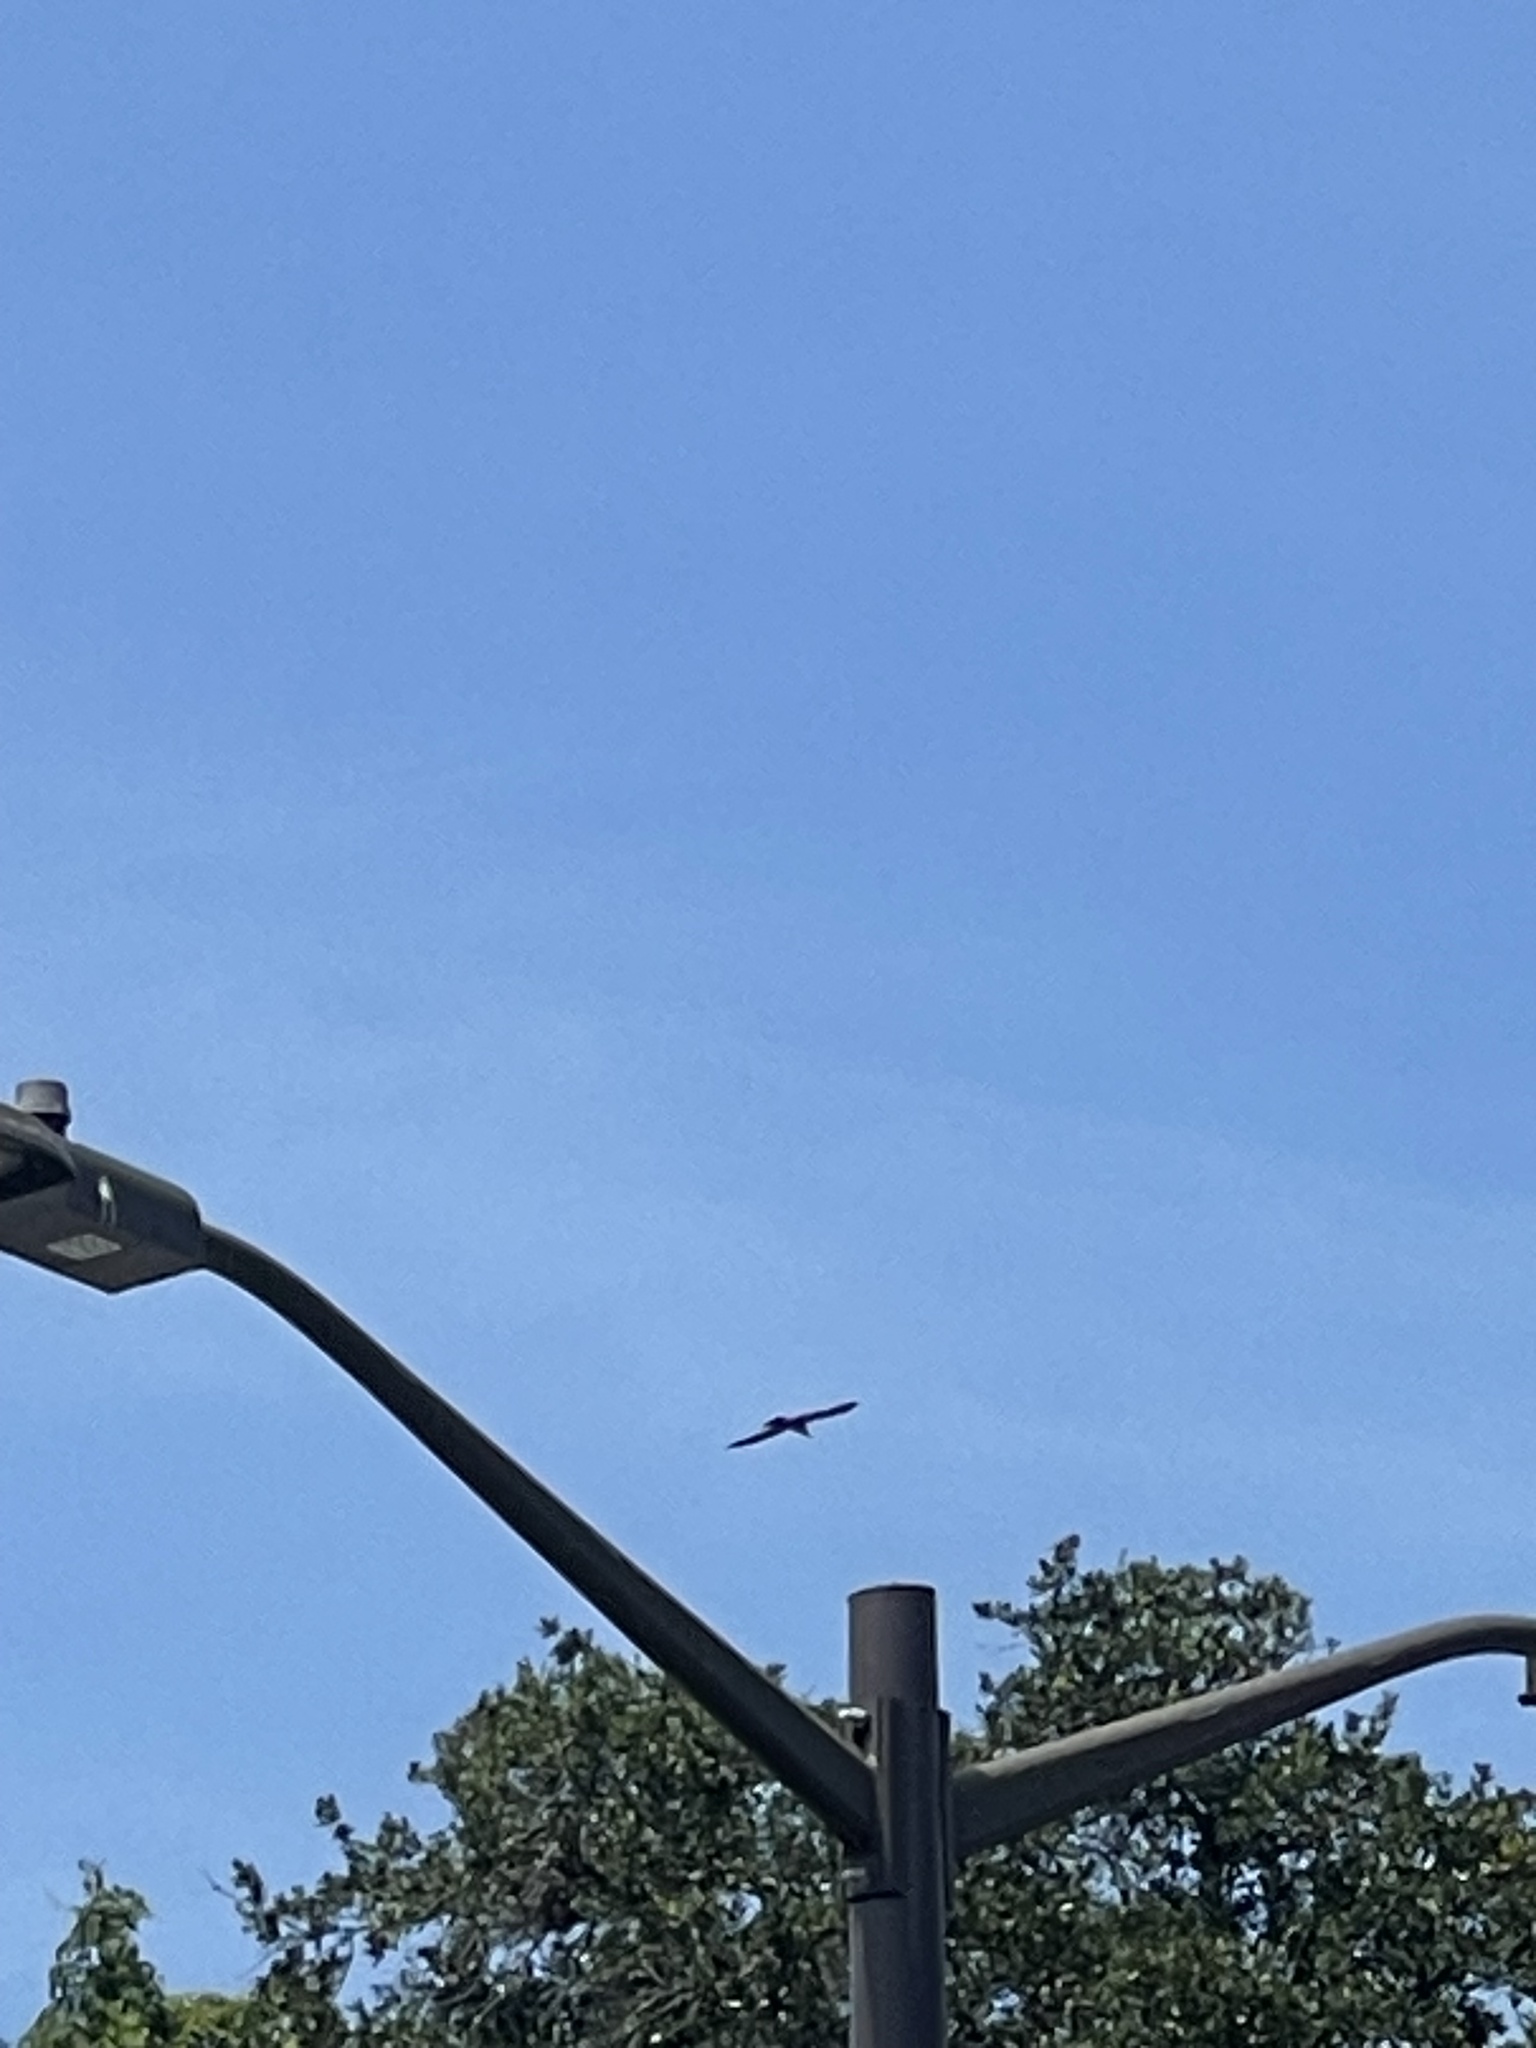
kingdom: Animalia
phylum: Chordata
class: Aves
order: Accipitriformes
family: Accipitridae
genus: Ictinia
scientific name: Ictinia mississippiensis
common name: Mississippi kite
